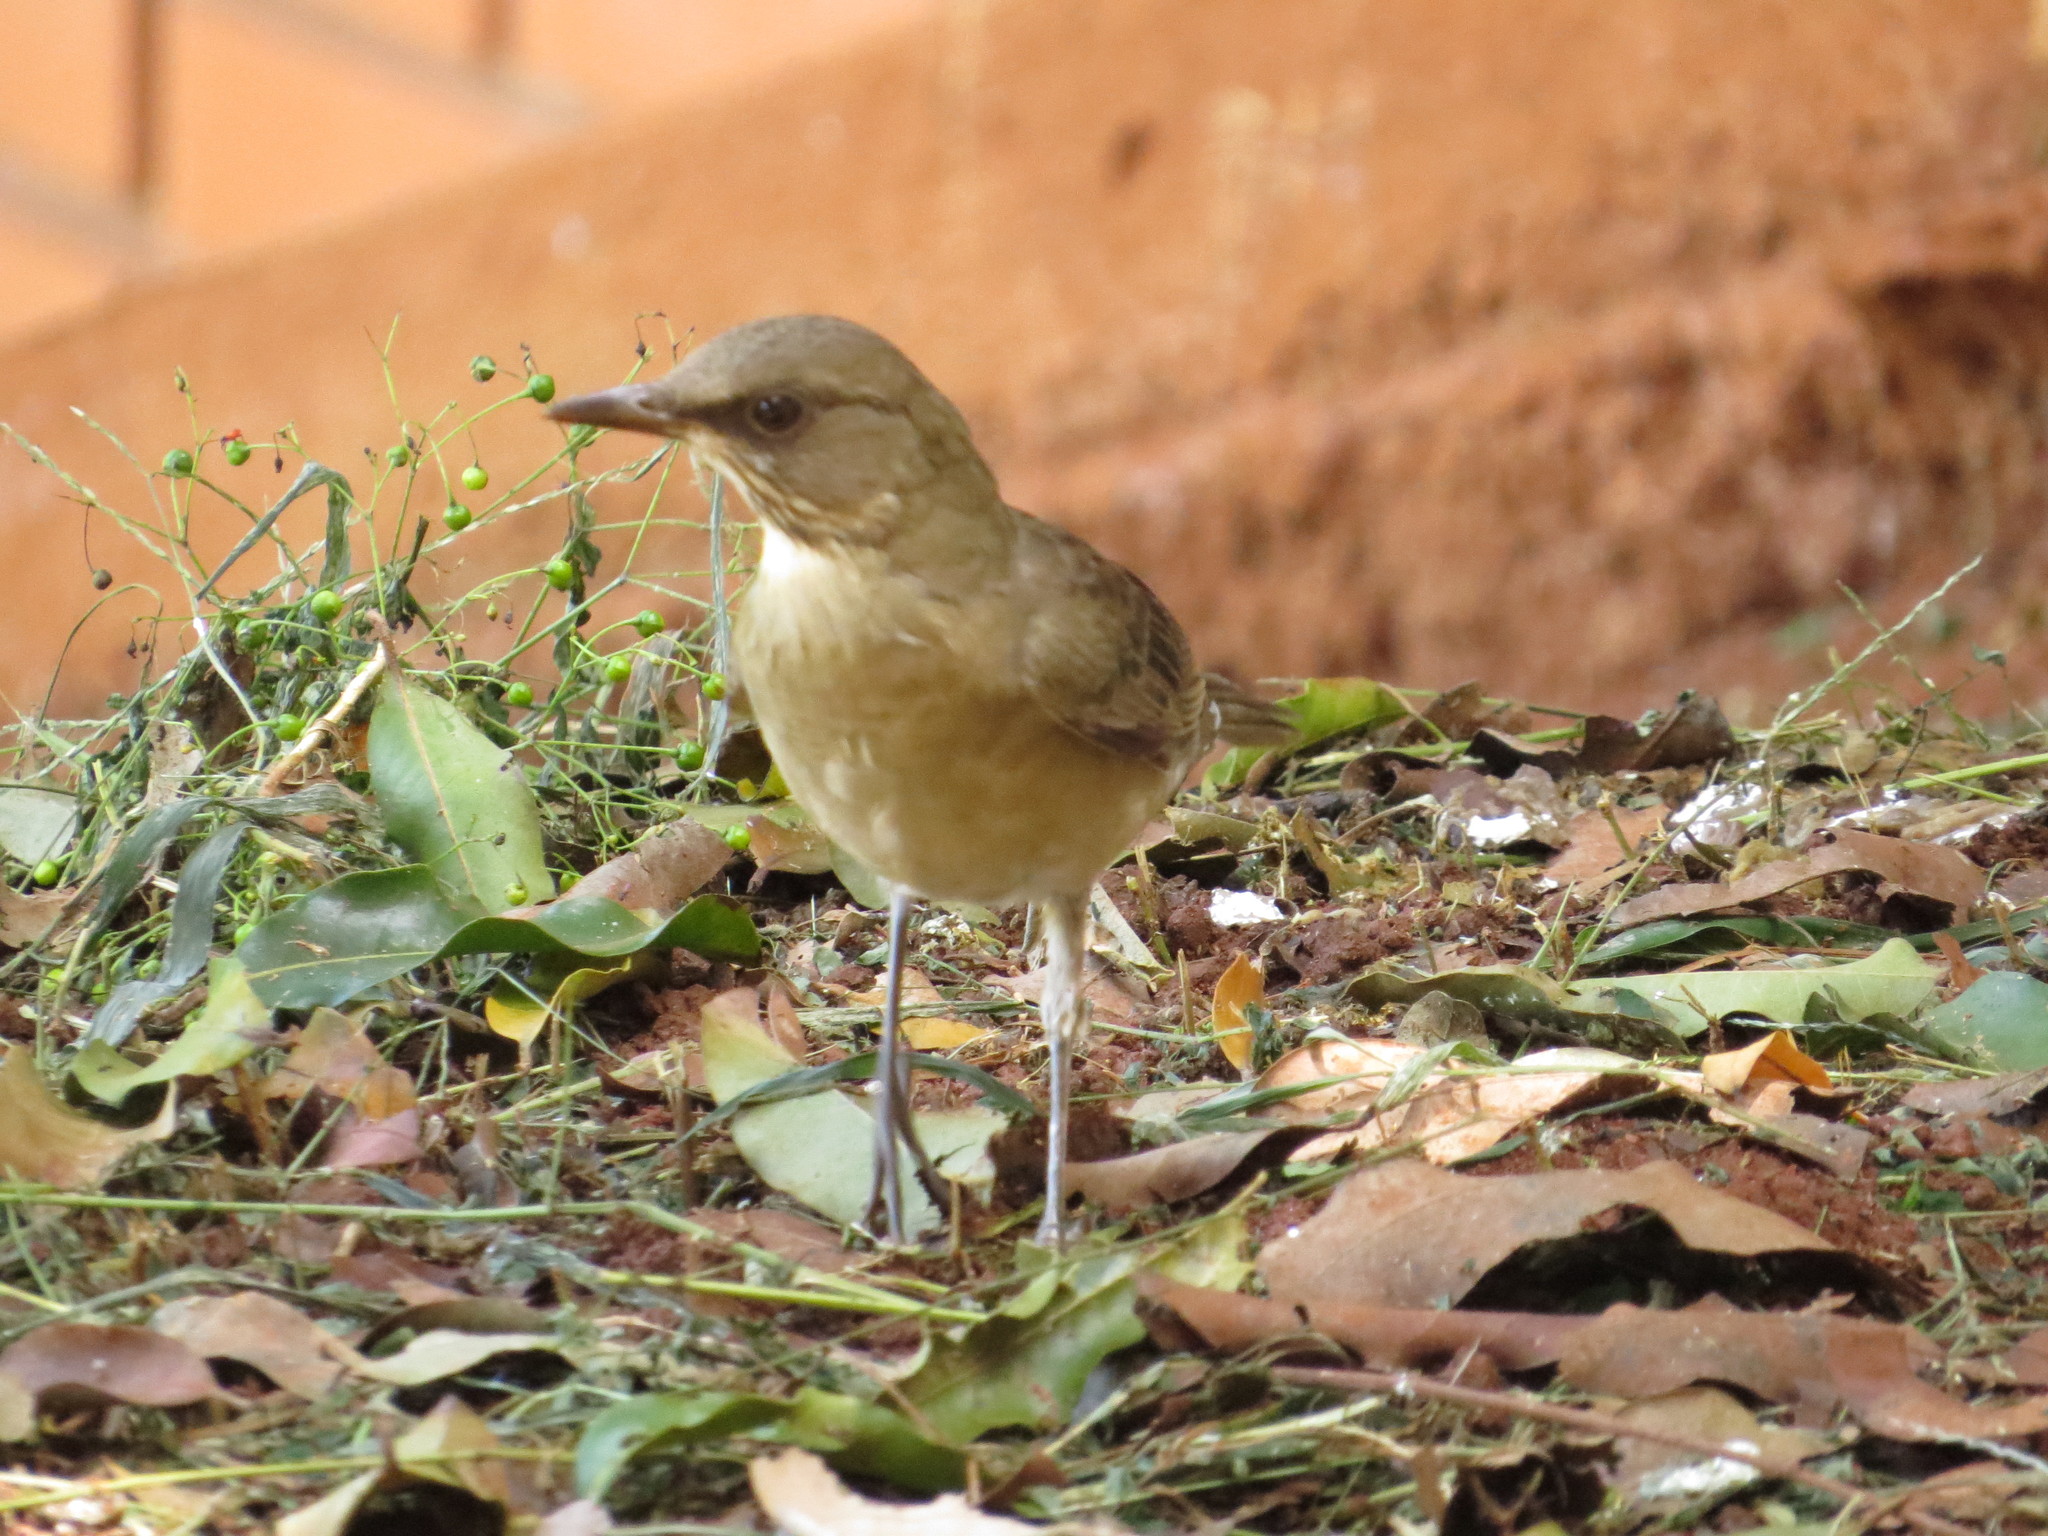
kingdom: Animalia
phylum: Chordata
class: Aves
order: Passeriformes
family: Turdidae
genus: Turdus
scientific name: Turdus subalaris
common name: Eastern slaty thrush
